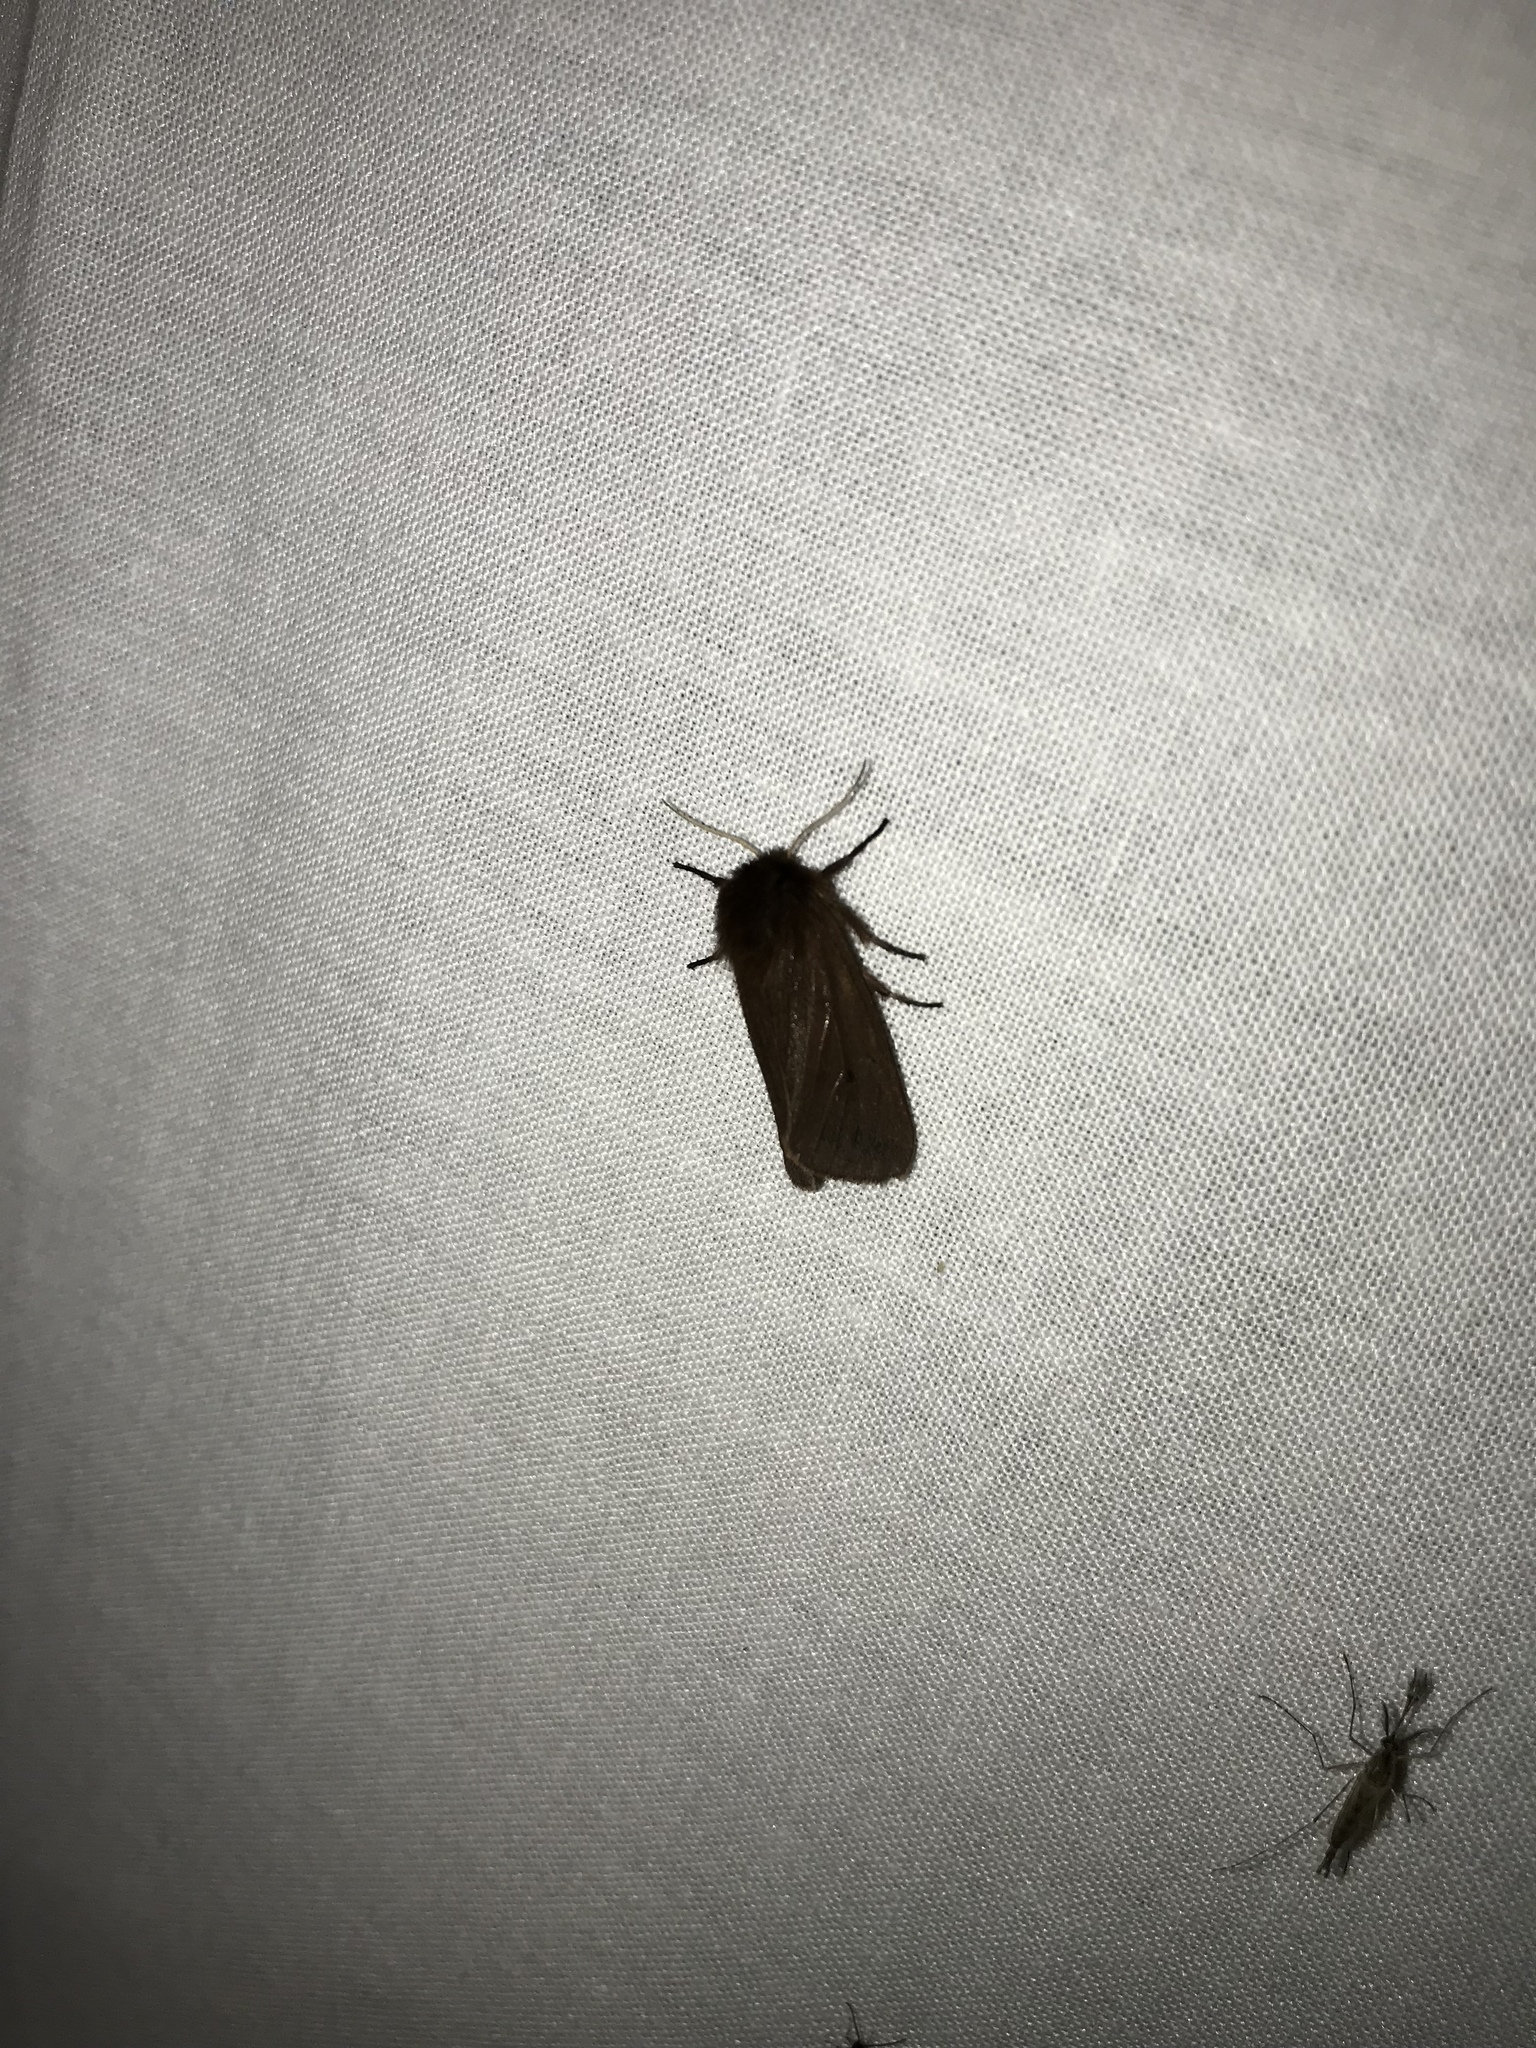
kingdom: Animalia
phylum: Arthropoda
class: Insecta
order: Lepidoptera
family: Erebidae
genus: Phragmatobia
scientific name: Phragmatobia fuliginosa
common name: Ruby tiger
